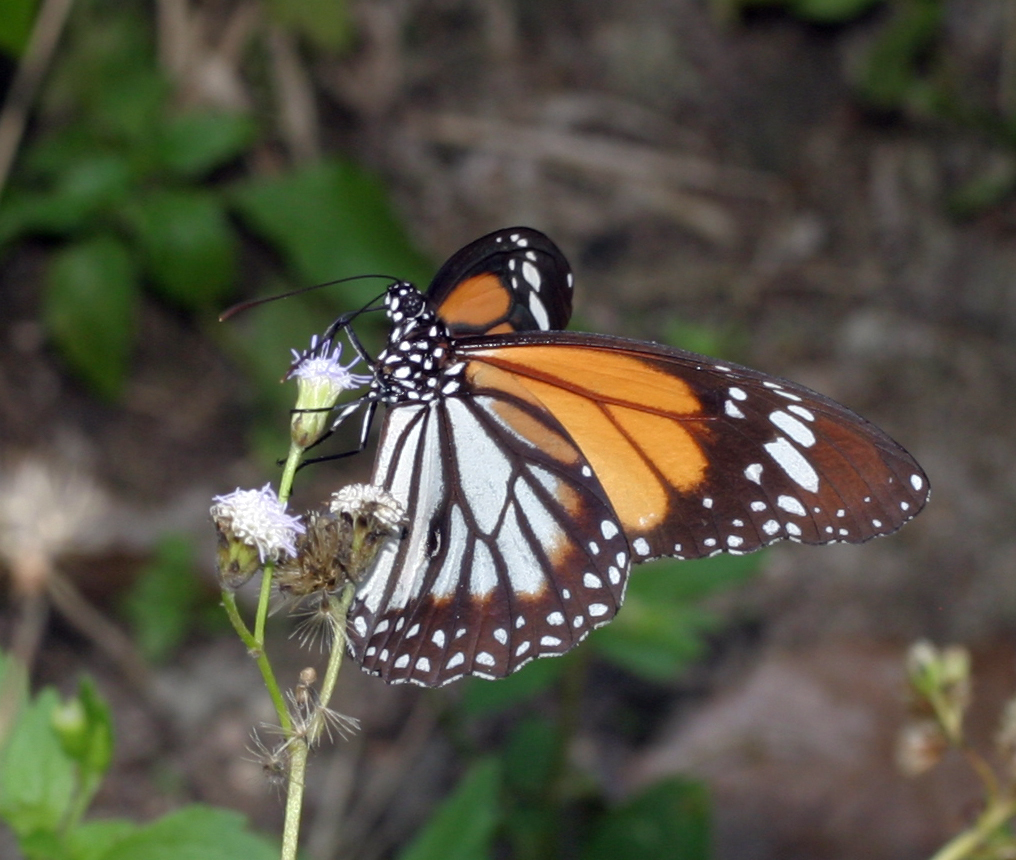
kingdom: Animalia
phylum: Arthropoda
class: Insecta
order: Lepidoptera
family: Nymphalidae
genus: Danaus
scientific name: Danaus genutia
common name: Common tiger butterfly
